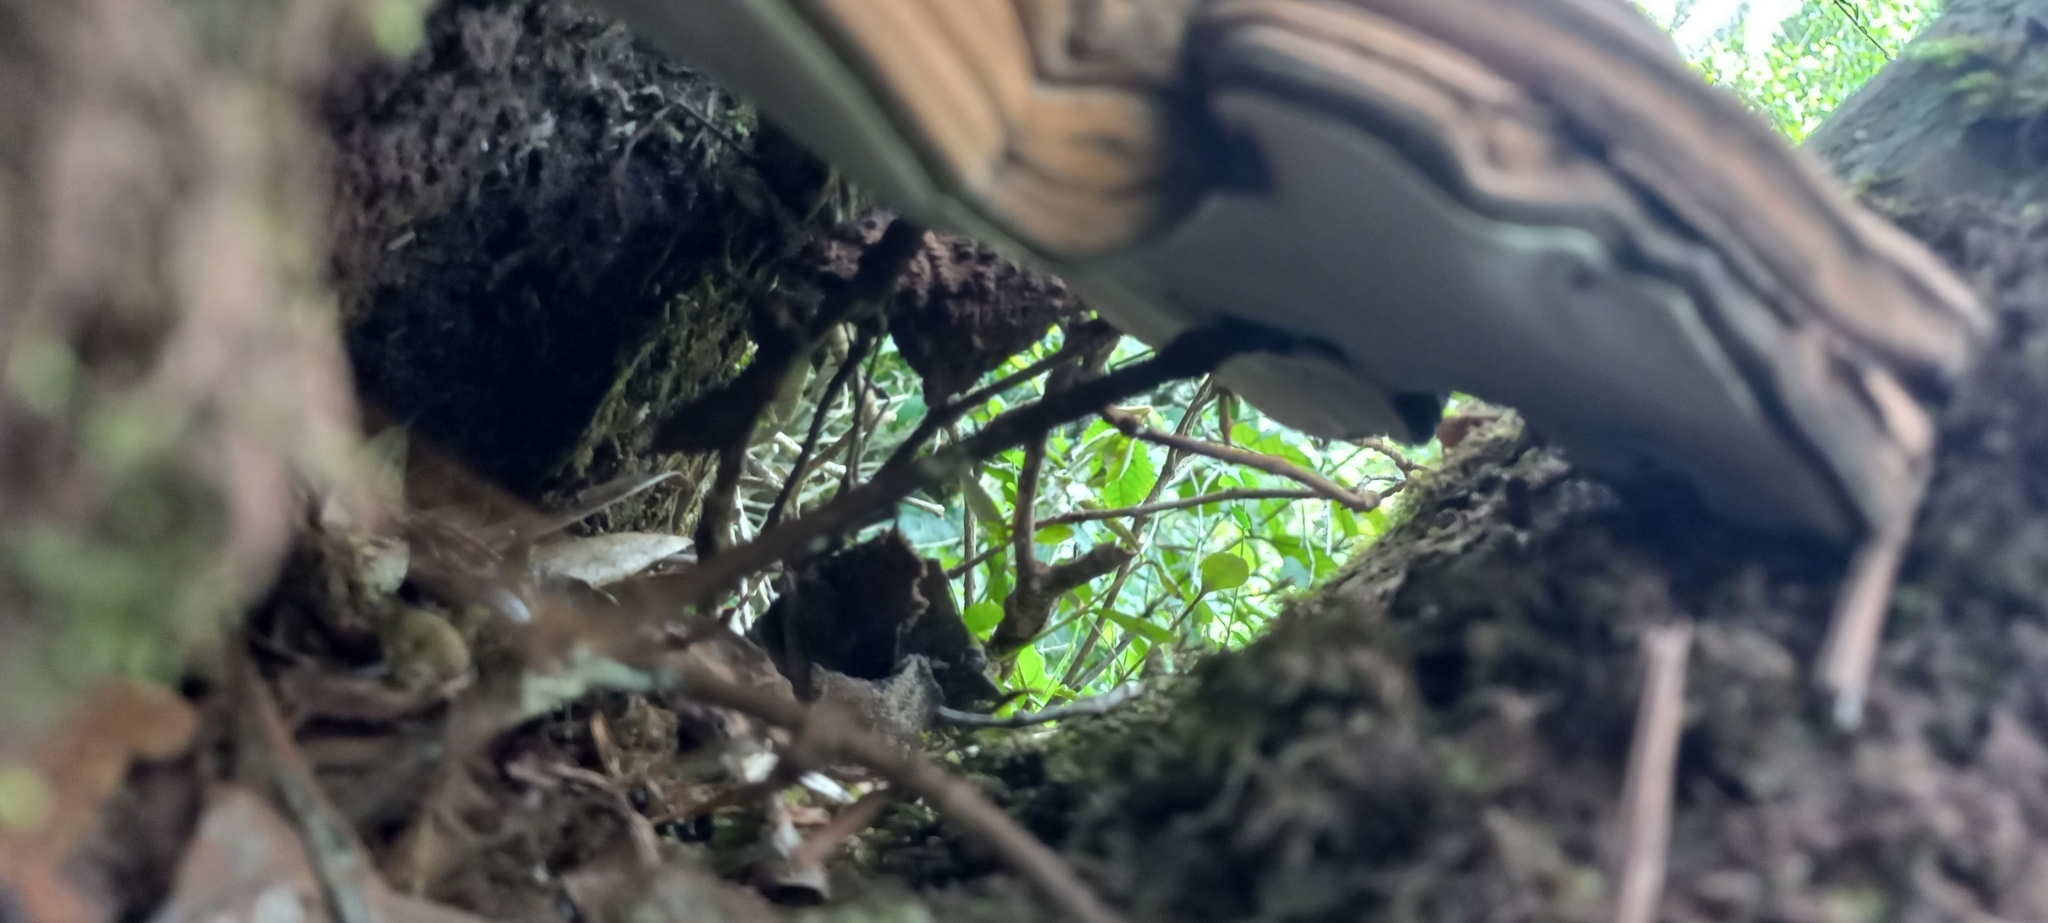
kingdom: Fungi
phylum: Basidiomycota
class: Agaricomycetes
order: Polyporales
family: Polyporaceae
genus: Ganoderma
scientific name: Ganoderma applanatum
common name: Artist's bracket
